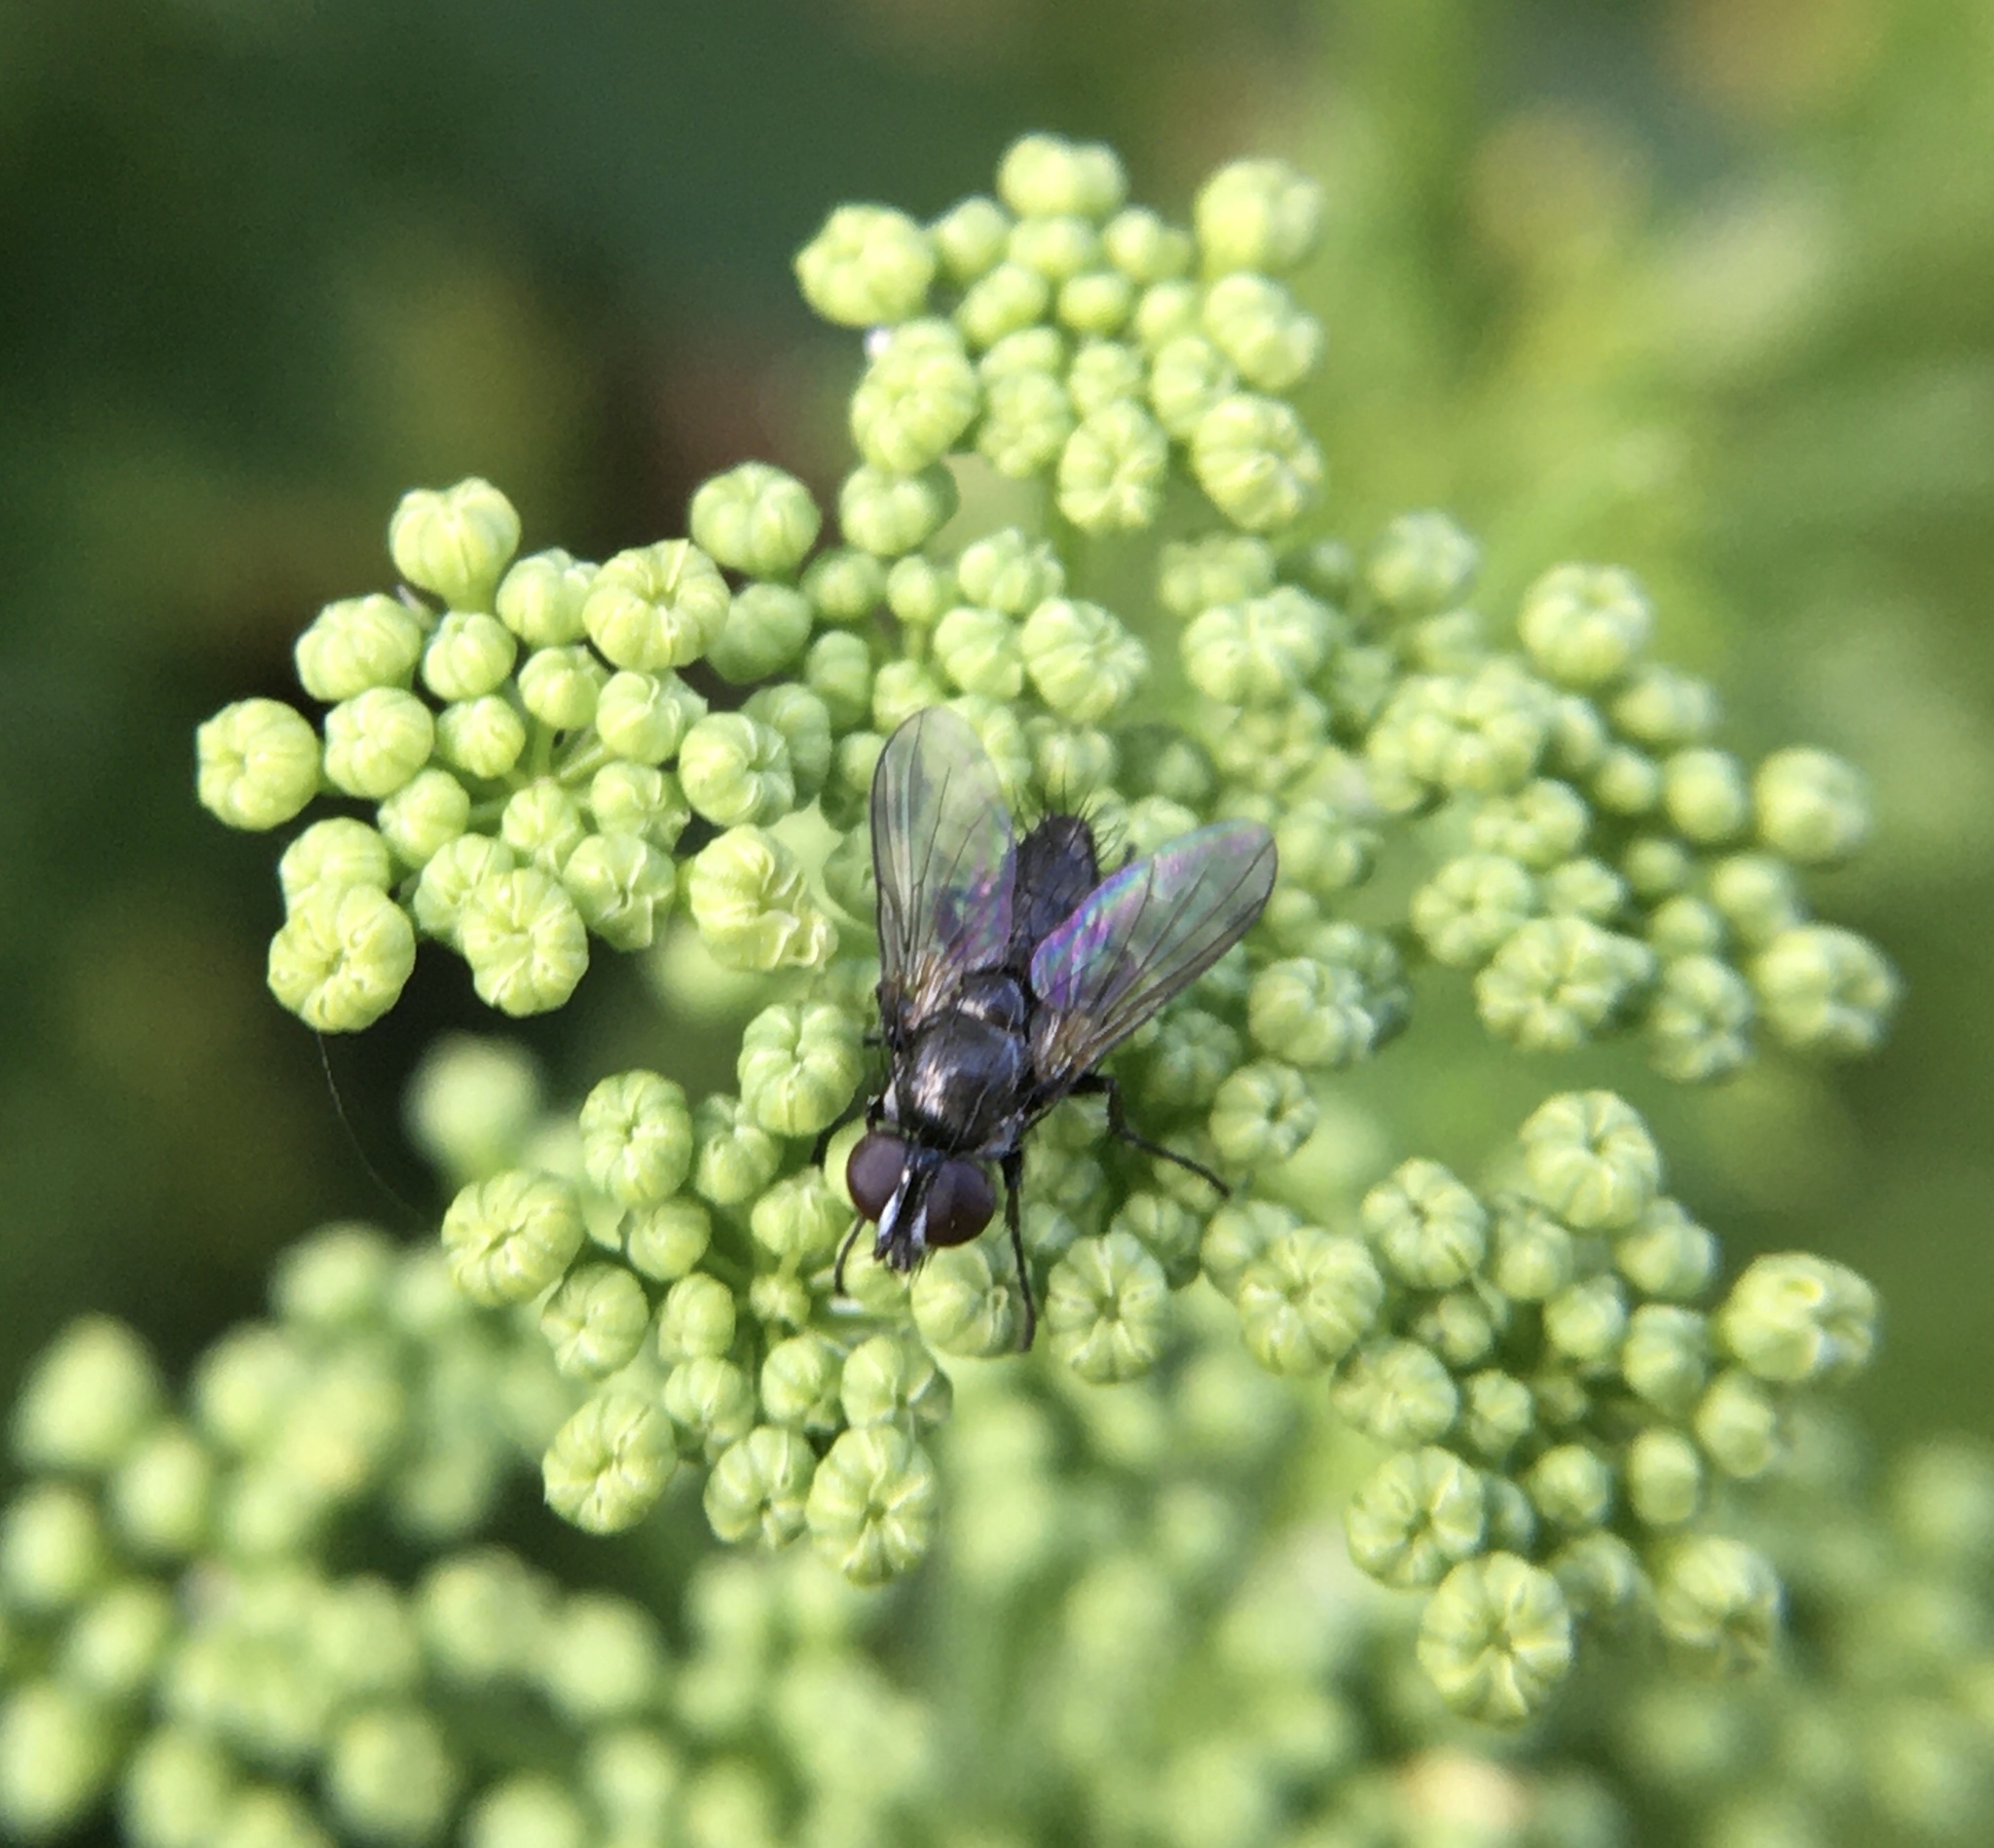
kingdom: Animalia
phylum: Arthropoda
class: Insecta
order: Diptera
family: Calliphoridae
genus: Rhinophora
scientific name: Rhinophora lepida
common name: Pouting woodlouse-fly
